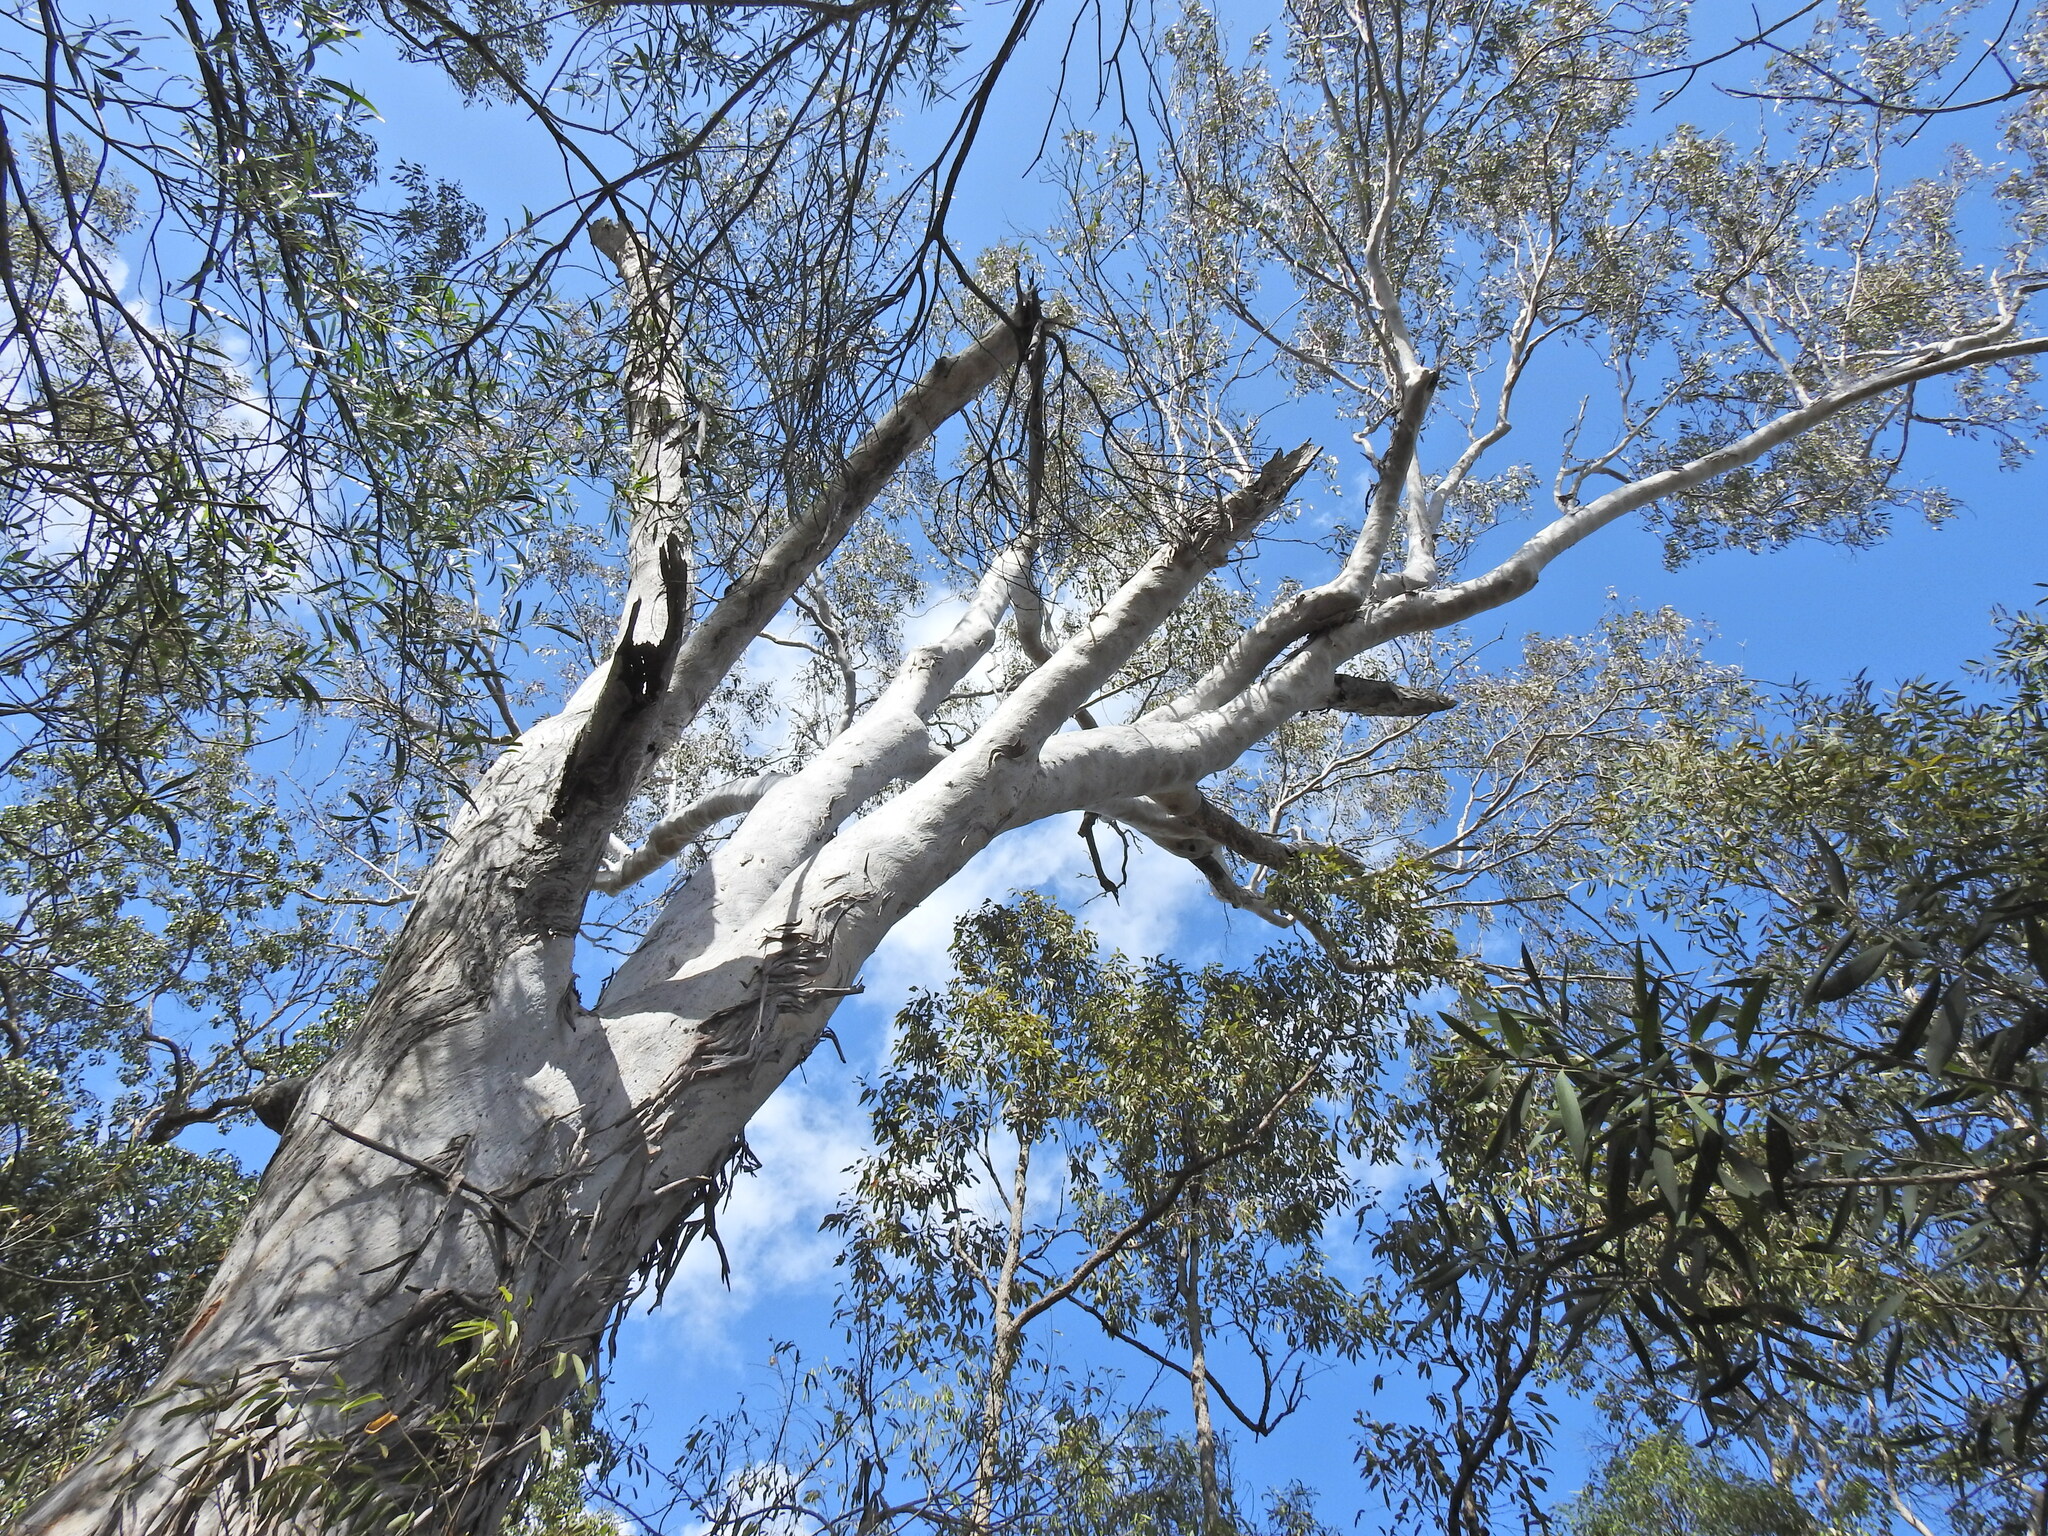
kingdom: Plantae
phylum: Tracheophyta
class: Magnoliopsida
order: Myrtales
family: Myrtaceae
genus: Eucalyptus
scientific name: Eucalyptus tereticornis
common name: Forest redgum
